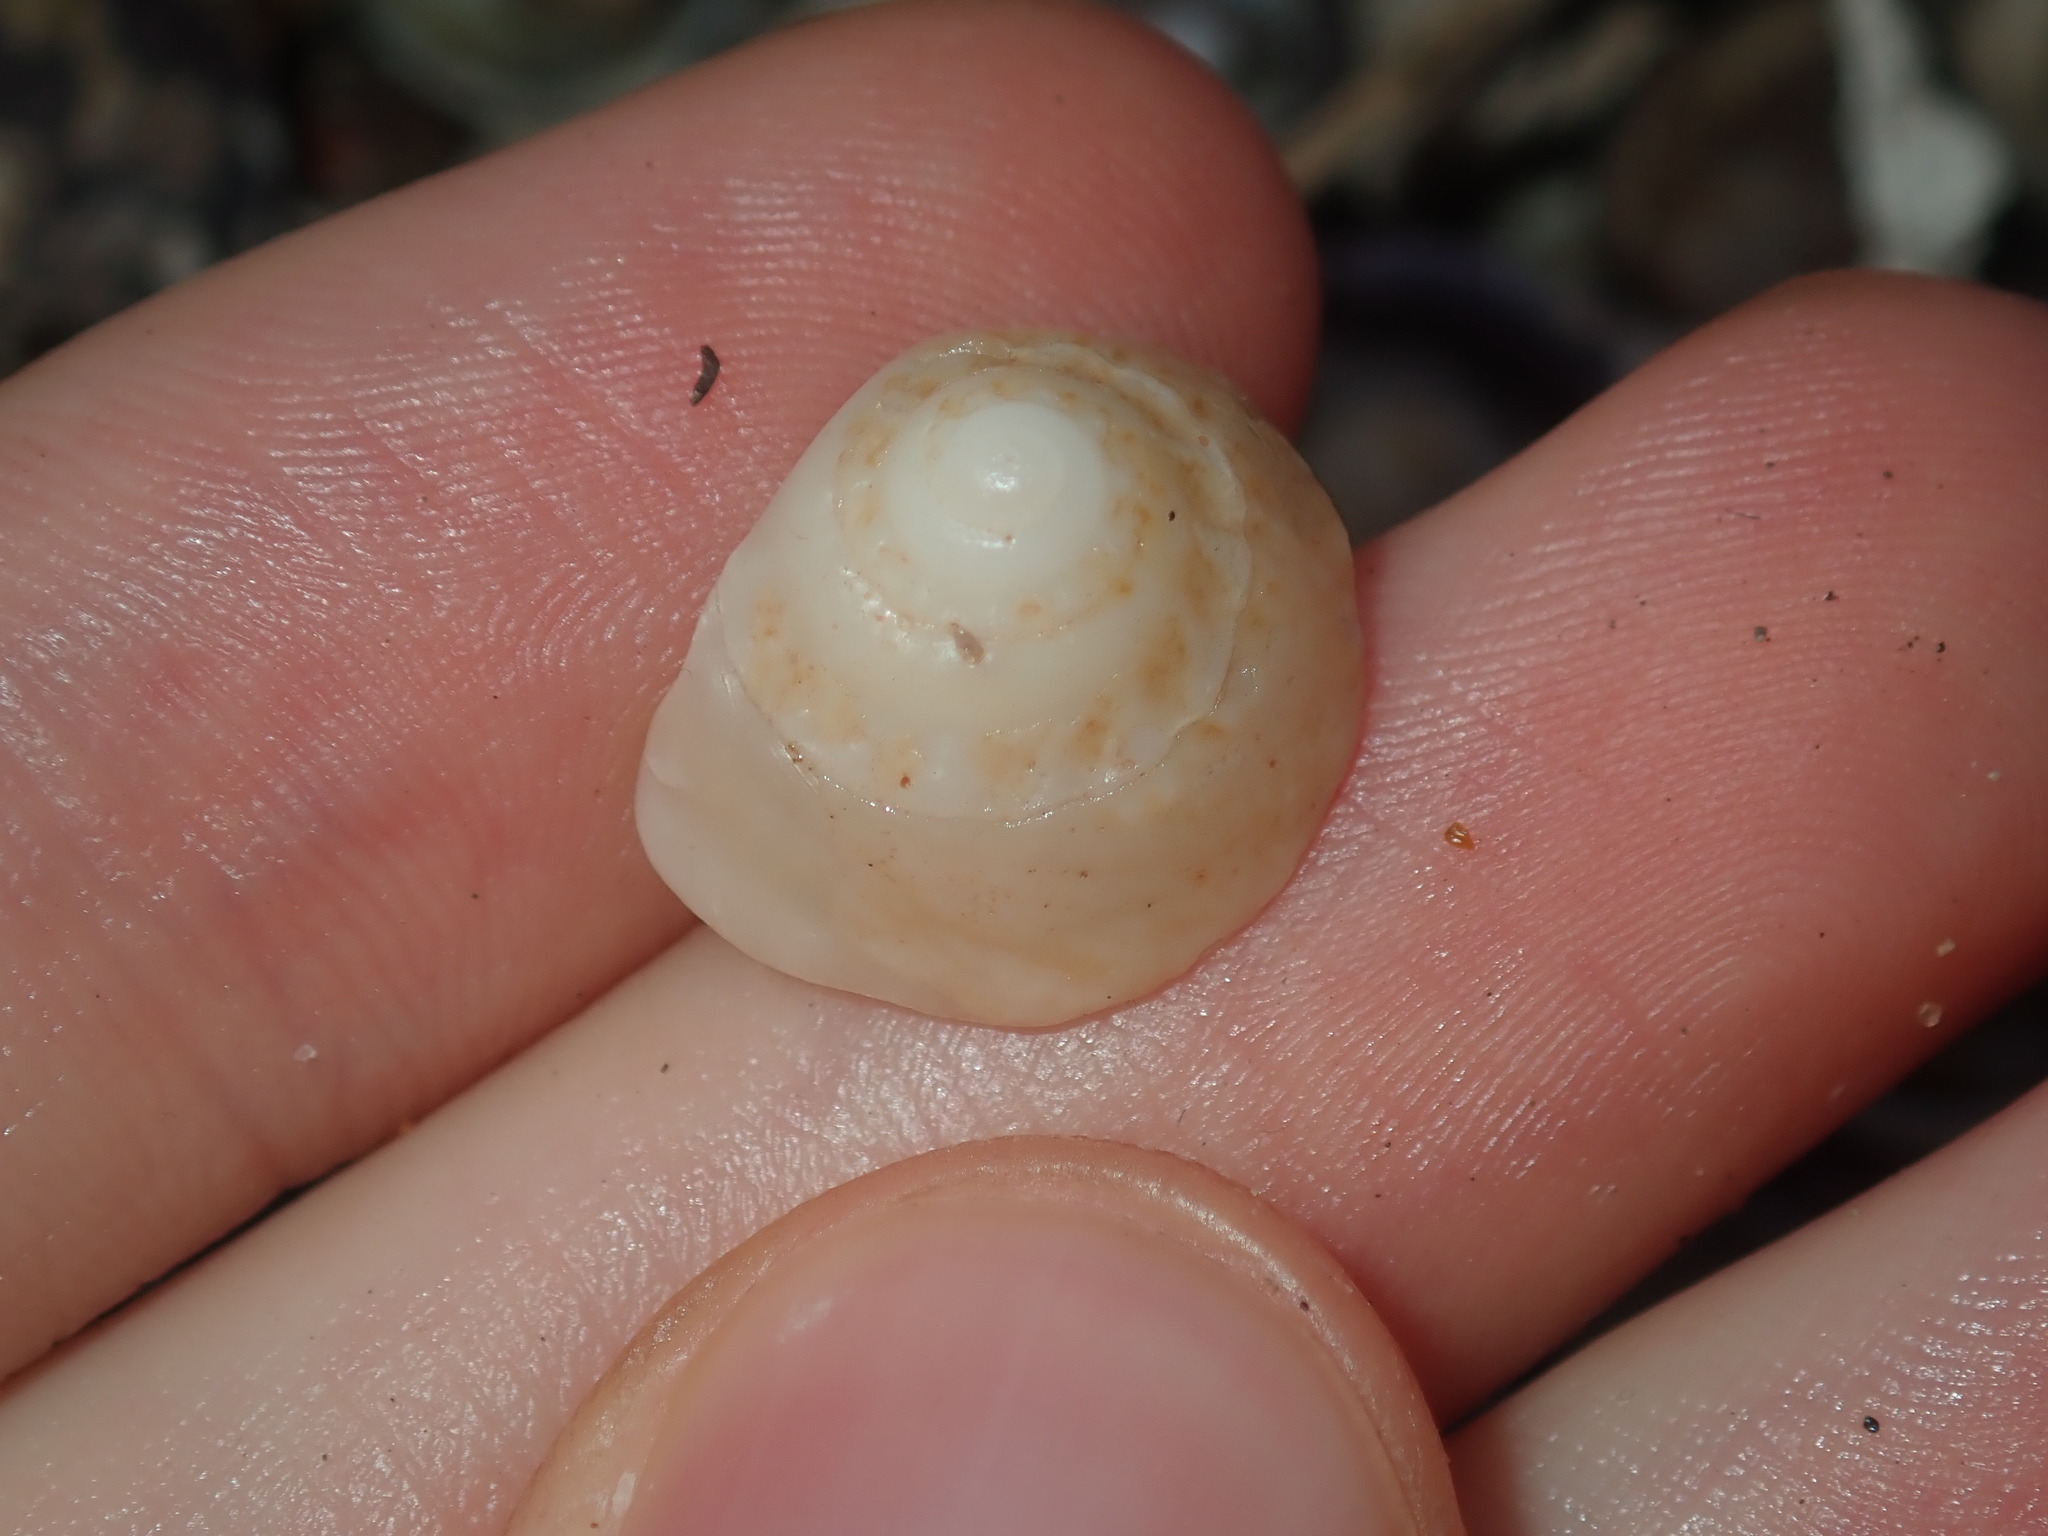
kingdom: Animalia
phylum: Mollusca
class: Gastropoda
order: Trochida
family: Turbinidae
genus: Bellastraea
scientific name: Bellastraea squamifera
